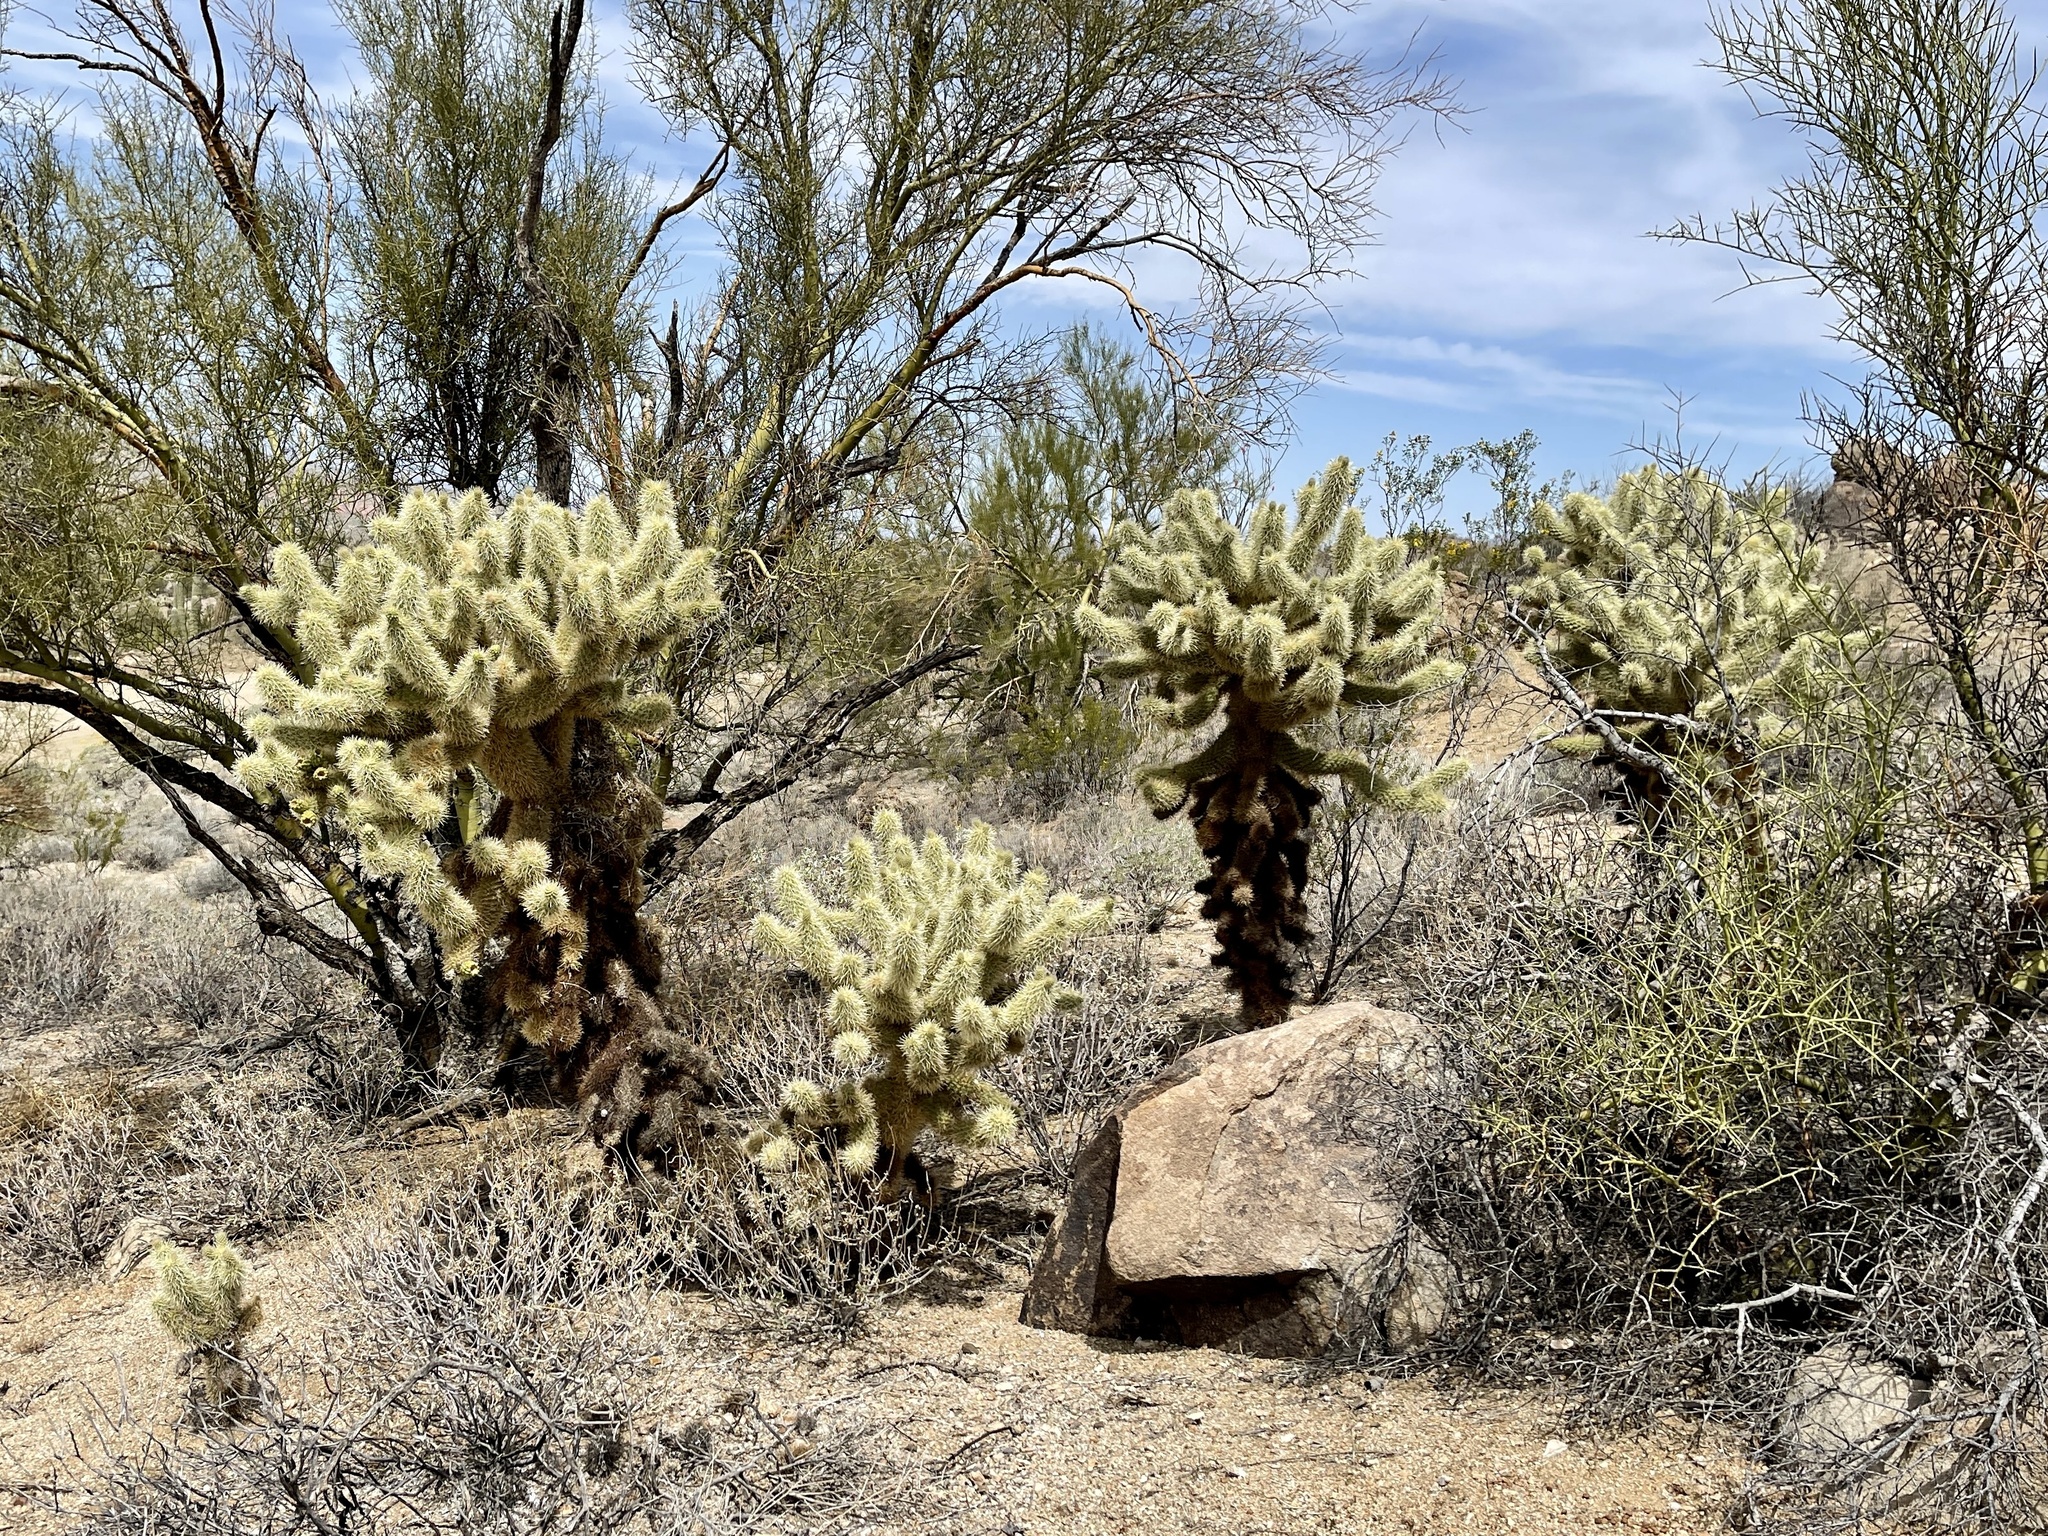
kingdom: Plantae
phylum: Tracheophyta
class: Magnoliopsida
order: Caryophyllales
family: Cactaceae
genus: Cylindropuntia
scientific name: Cylindropuntia fosbergii
